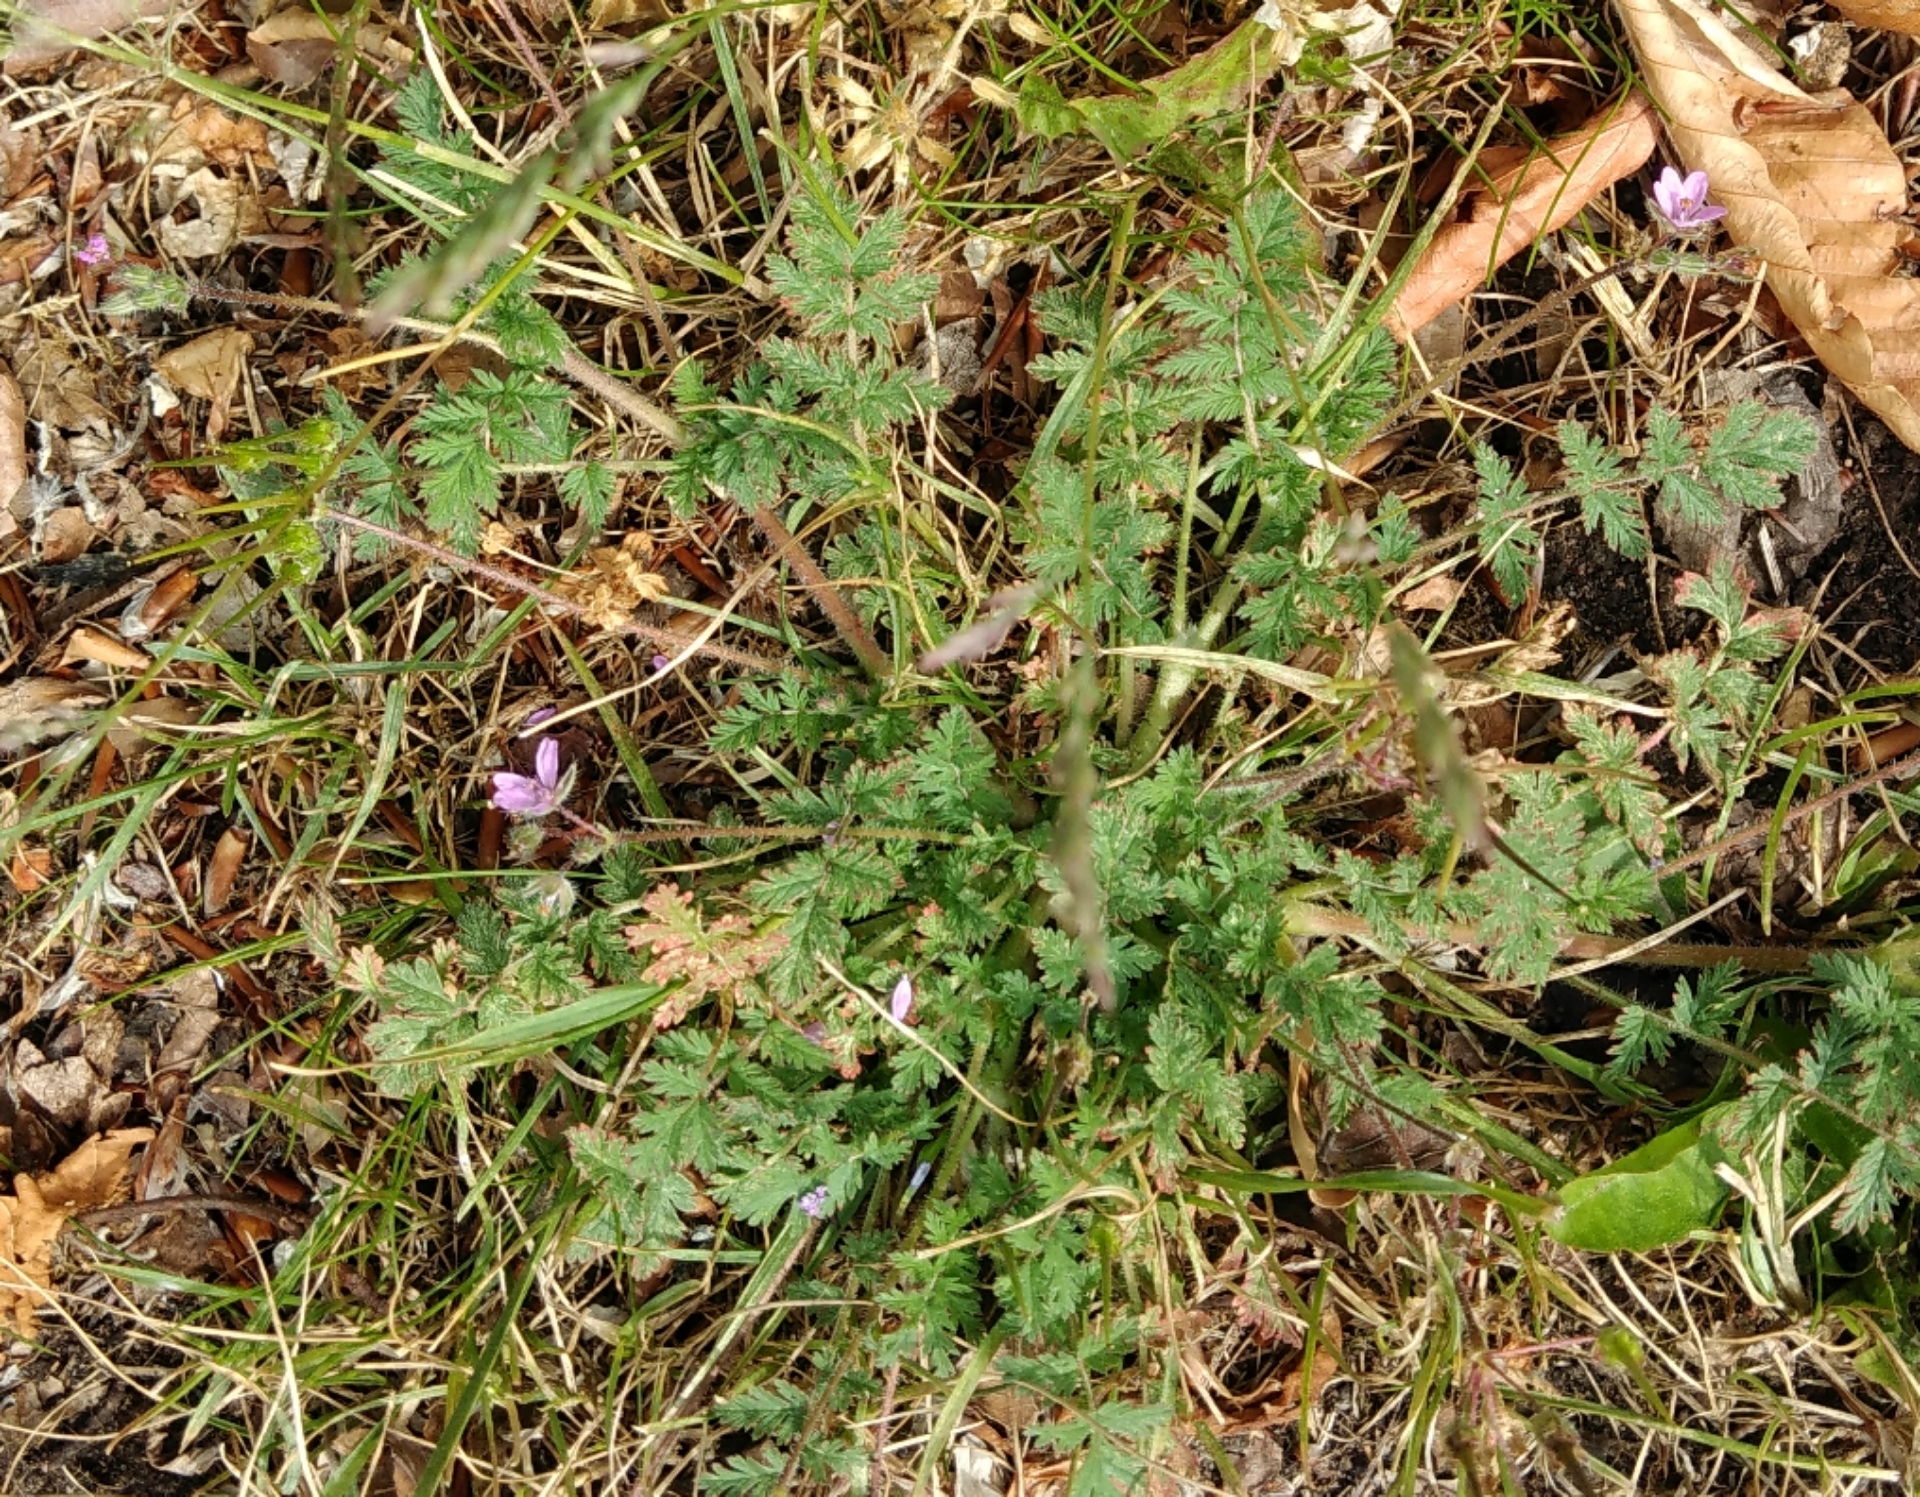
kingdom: Plantae
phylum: Tracheophyta
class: Magnoliopsida
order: Geraniales
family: Geraniaceae
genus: Erodium
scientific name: Erodium cicutarium
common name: Common stork's-bill
